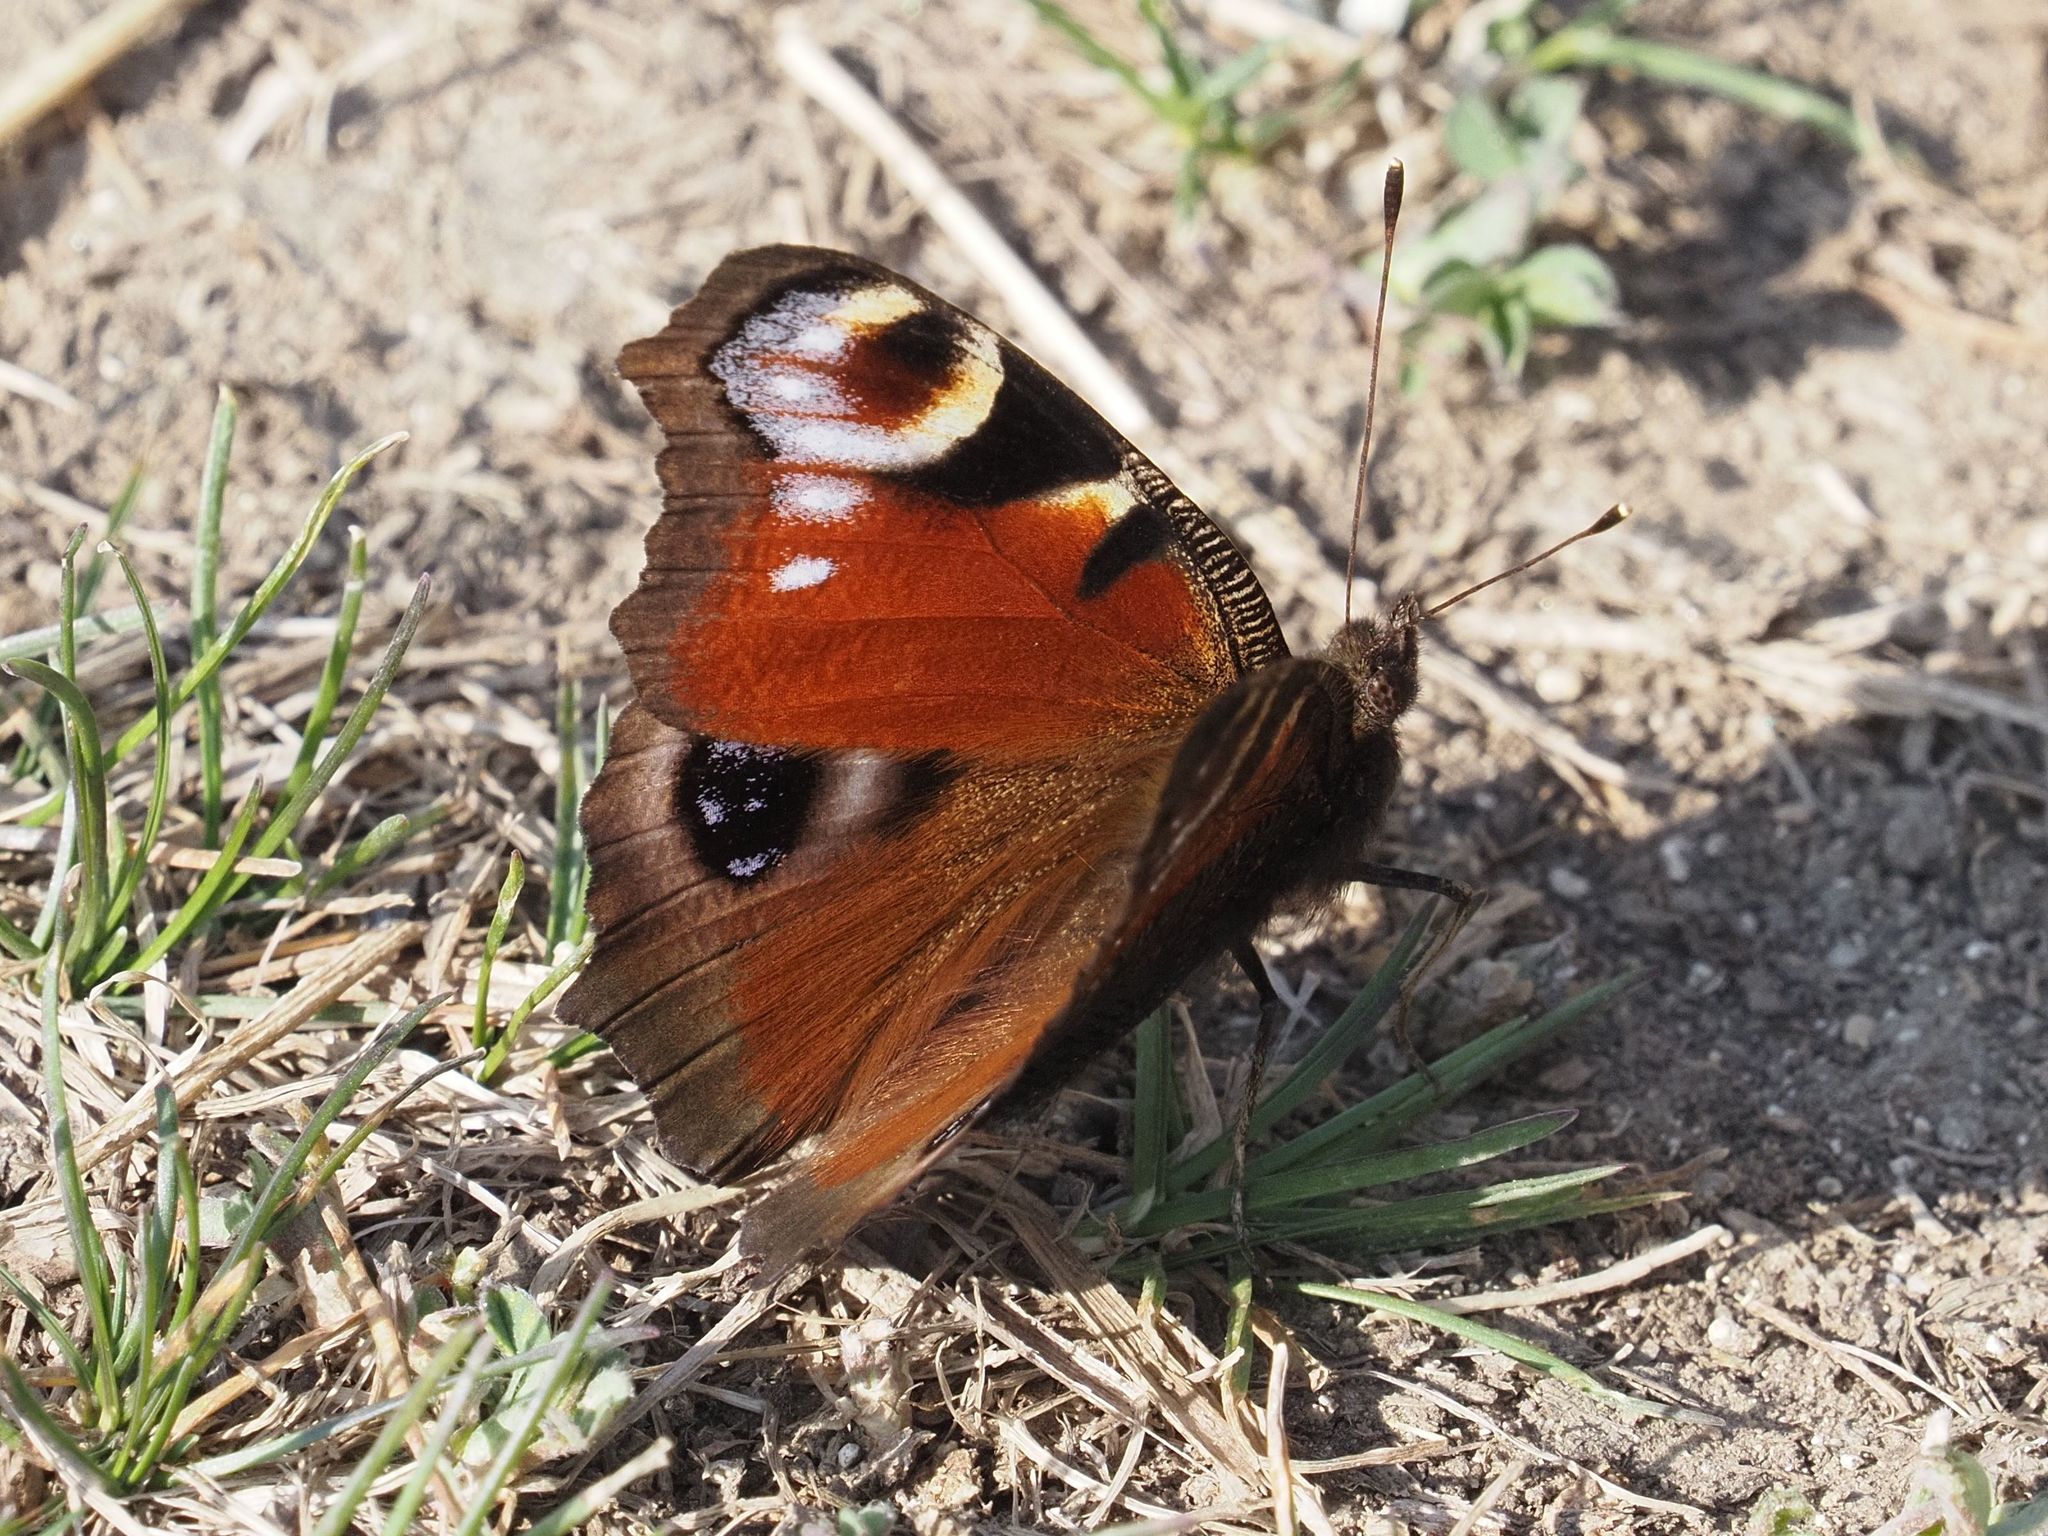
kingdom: Animalia
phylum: Arthropoda
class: Insecta
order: Lepidoptera
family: Nymphalidae
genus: Aglais
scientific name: Aglais io
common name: Peacock
